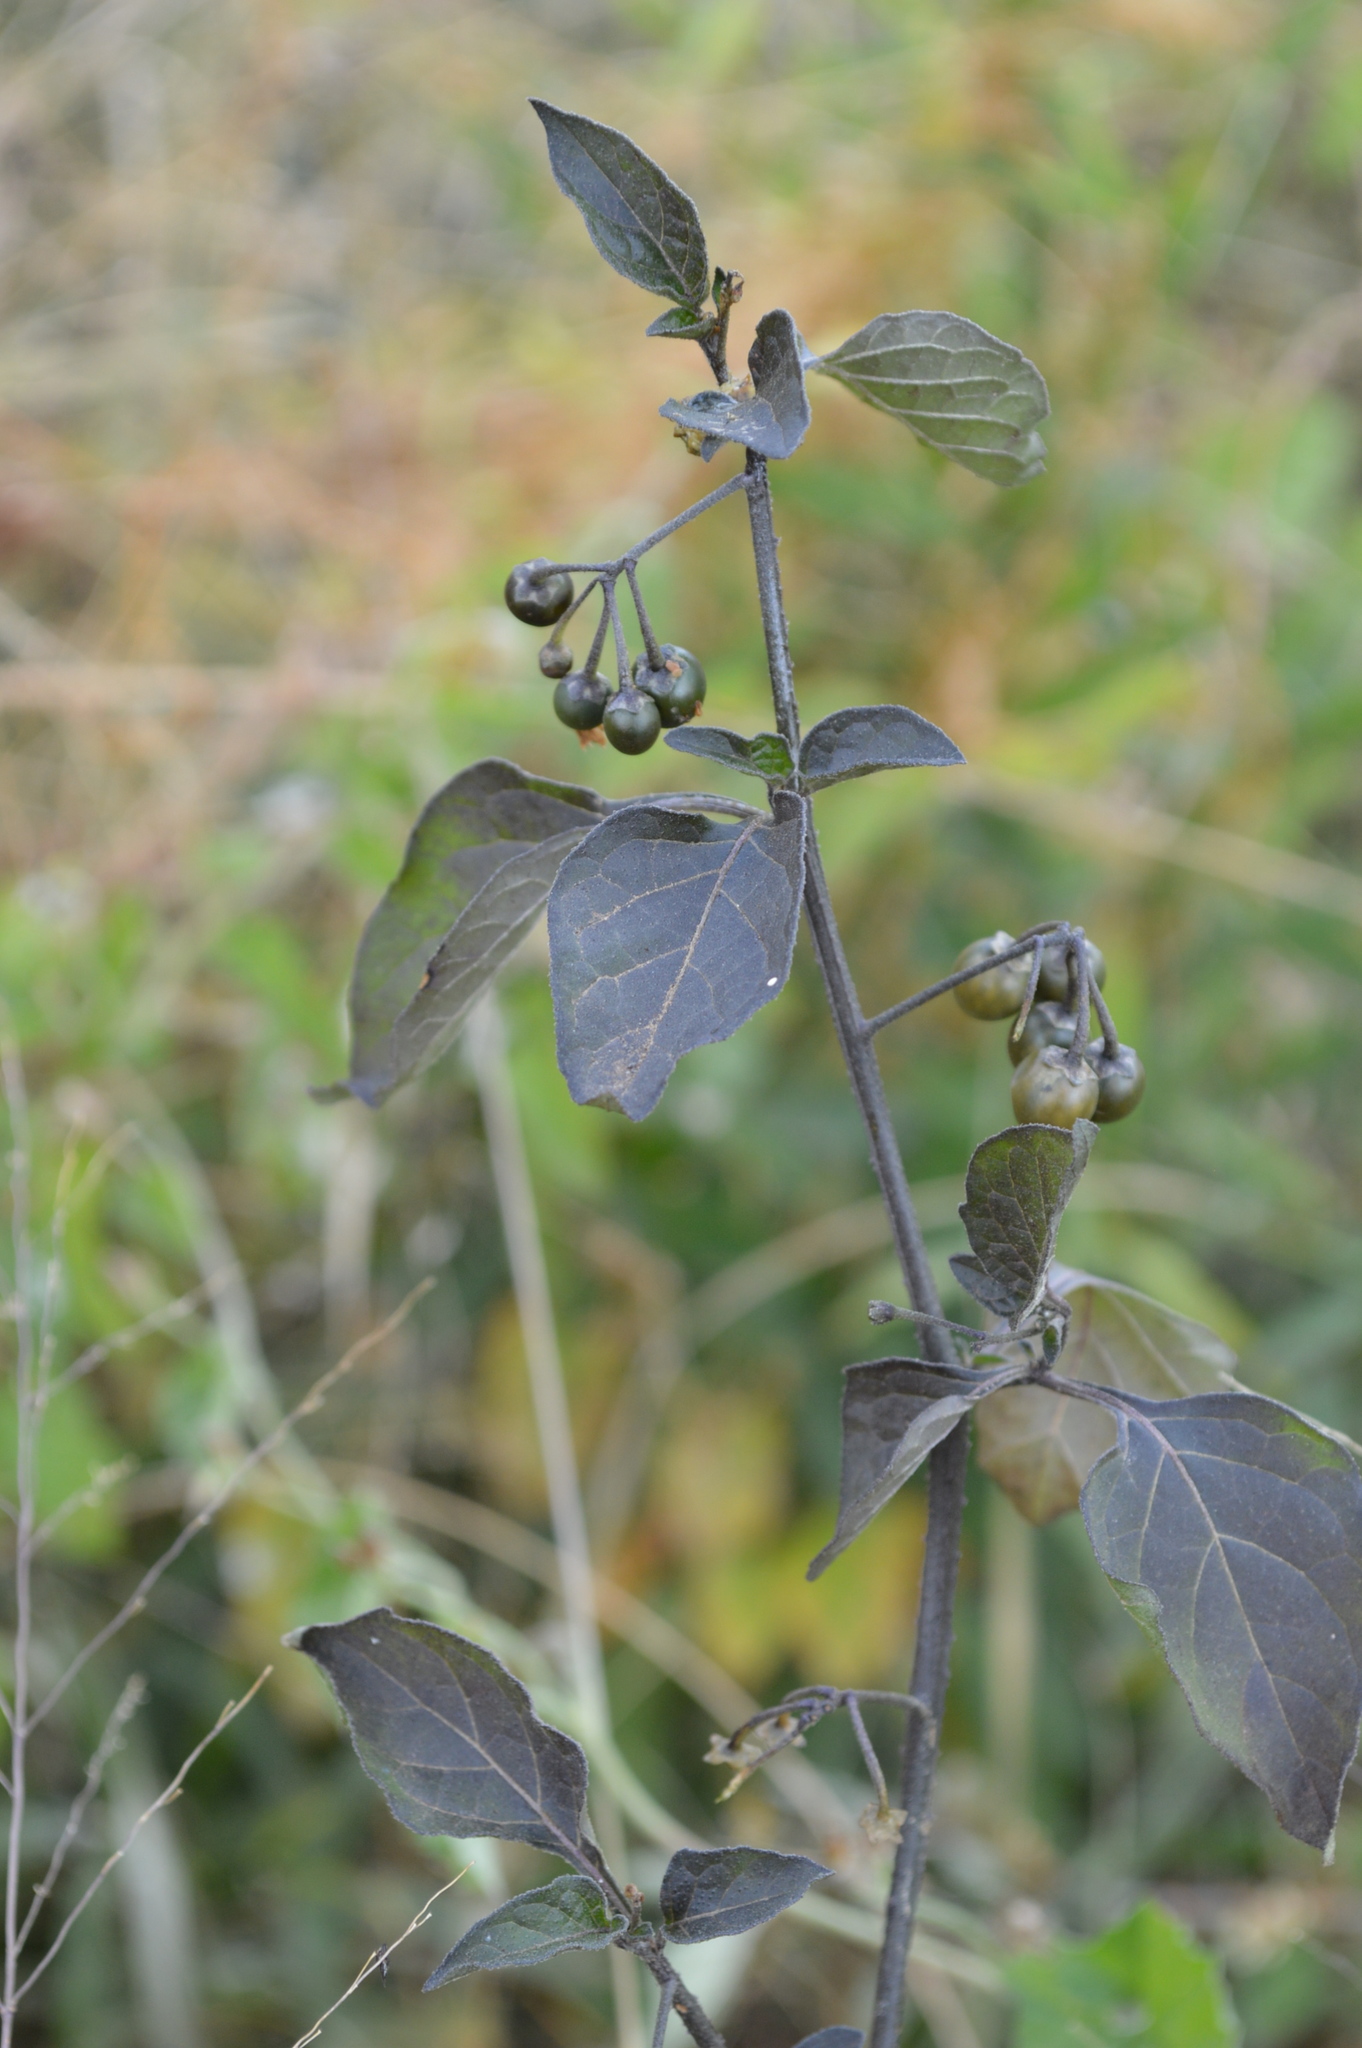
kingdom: Plantae
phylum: Tracheophyta
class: Magnoliopsida
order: Solanales
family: Solanaceae
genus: Solanum
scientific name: Solanum nigrum
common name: Black nightshade
